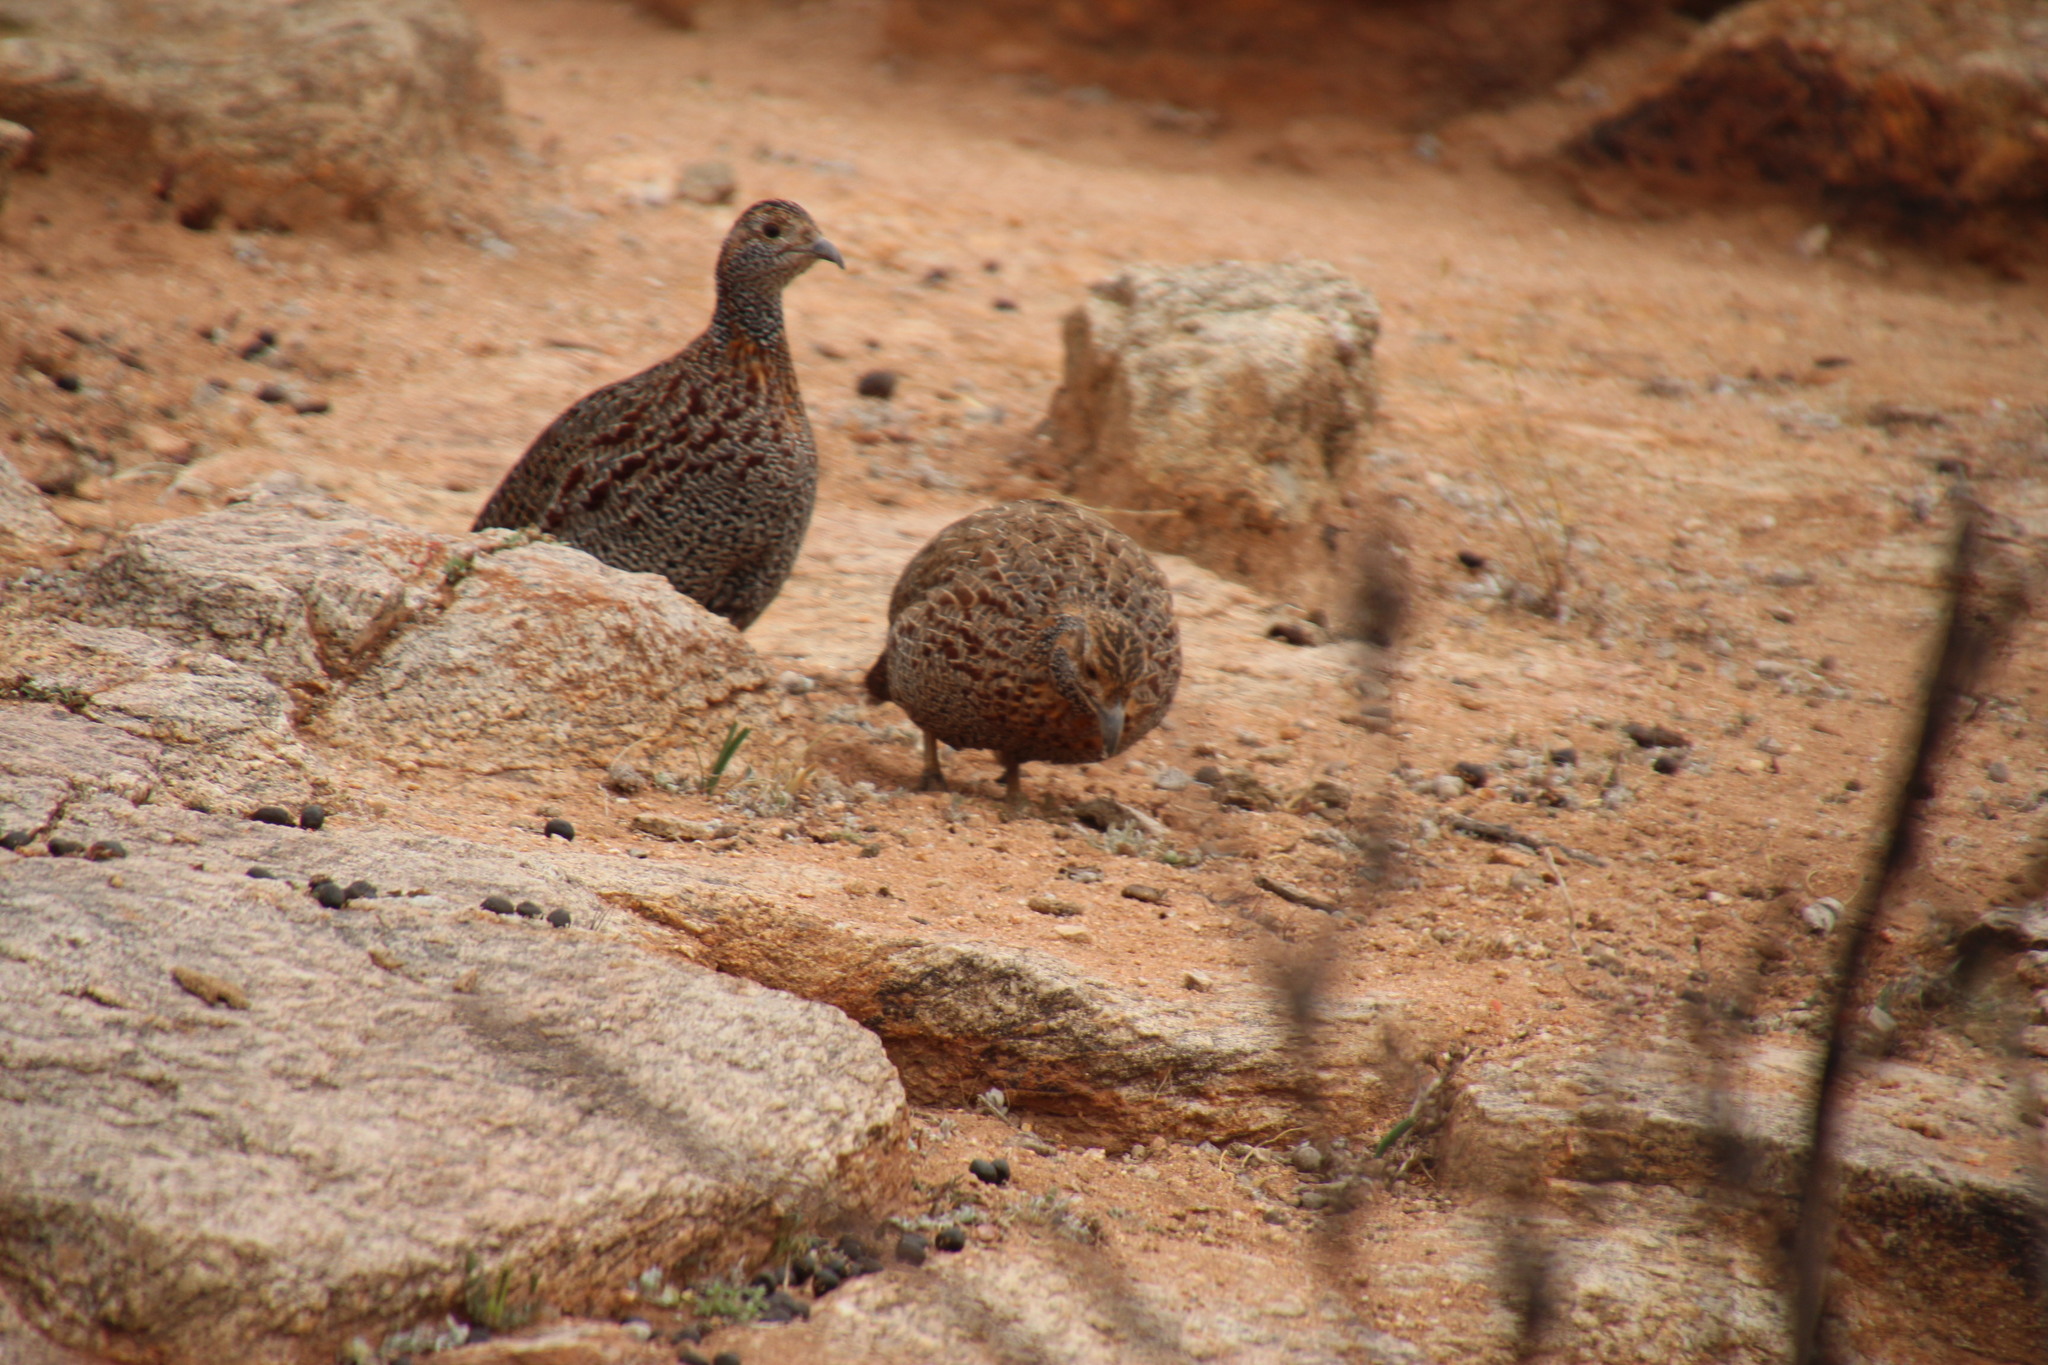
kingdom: Animalia
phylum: Chordata
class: Aves
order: Galliformes
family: Phasianidae
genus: Scleroptila
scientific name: Scleroptila afra
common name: Grey-winged francolin
